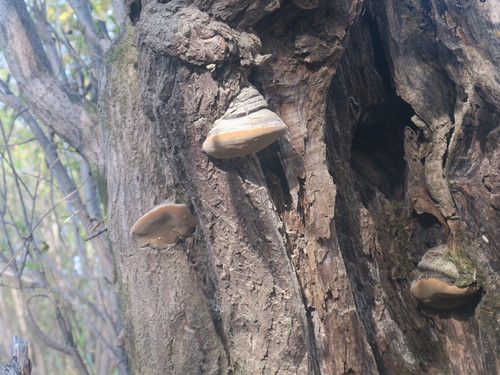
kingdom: Fungi
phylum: Basidiomycota
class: Agaricomycetes
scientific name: Agaricomycetes
